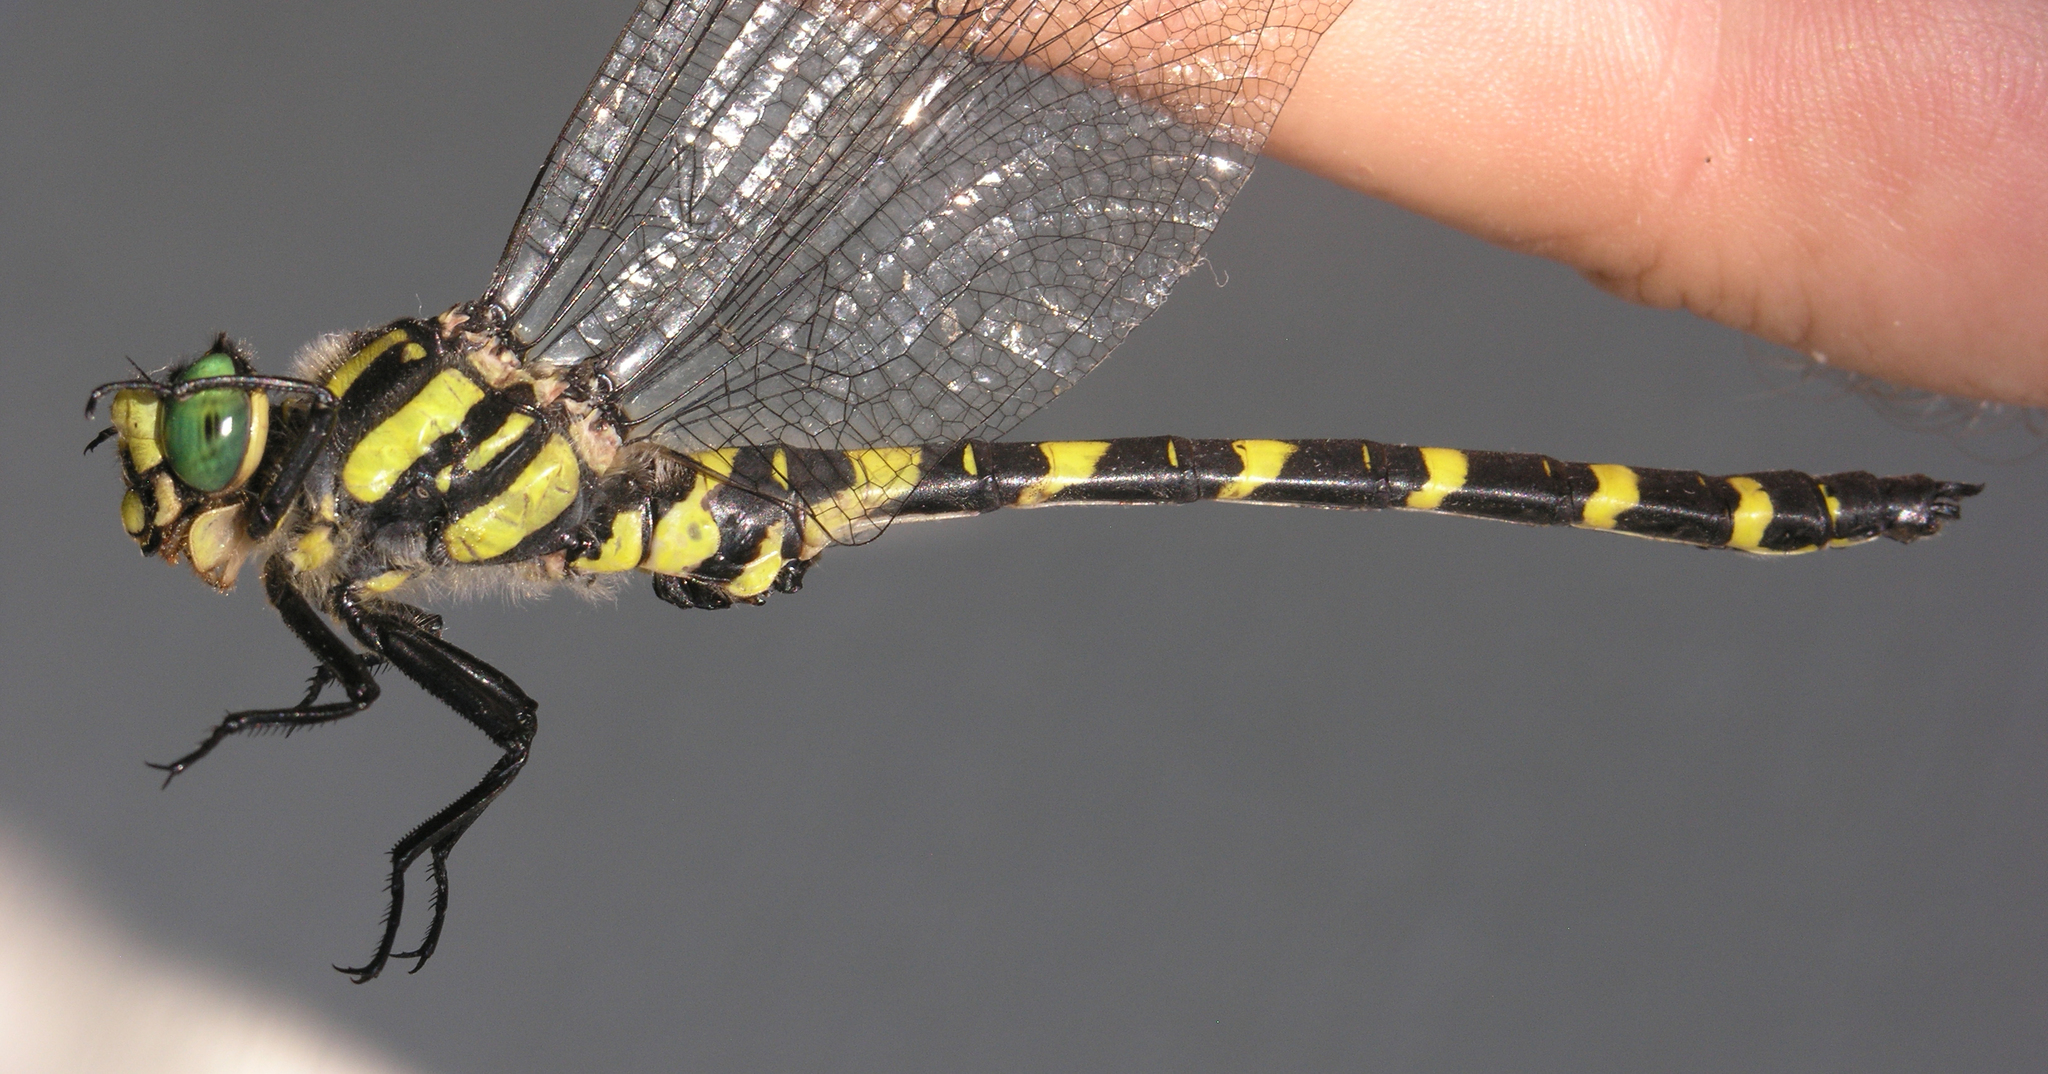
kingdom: Animalia
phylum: Arthropoda
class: Insecta
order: Odonata
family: Cordulegastridae
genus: Cordulegaster
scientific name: Cordulegaster picta
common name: Turkish goldenring
